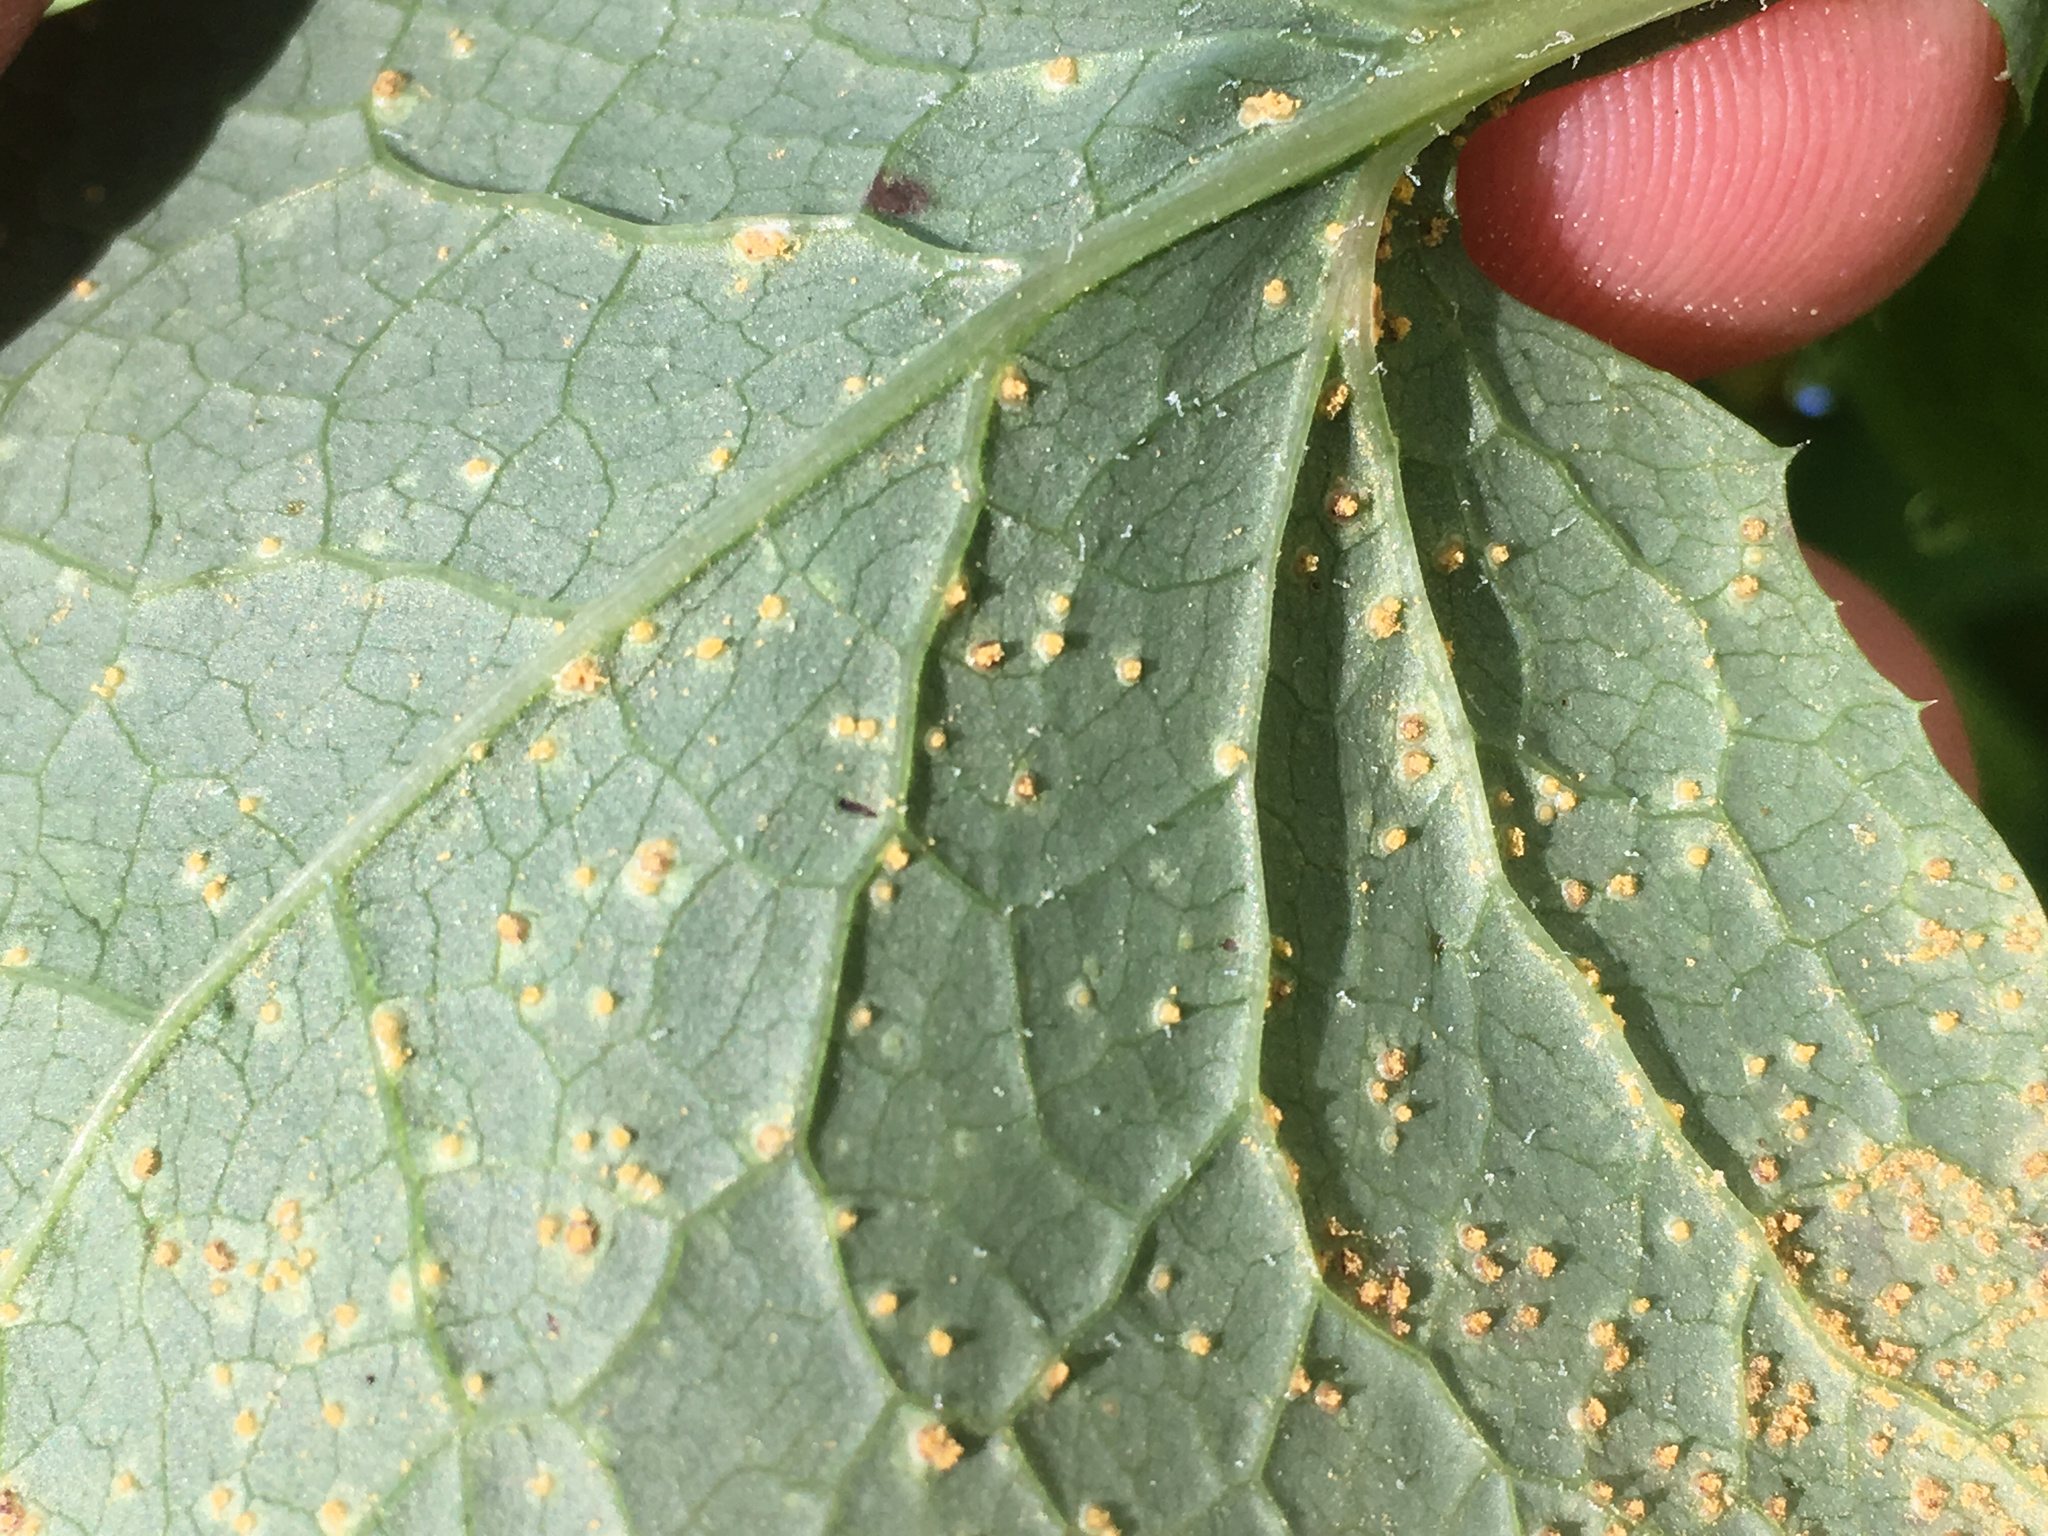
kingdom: Fungi
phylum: Basidiomycota
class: Pucciniomycetes
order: Pucciniales
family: Pucciniaceae
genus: Peristemma
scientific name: Peristemma pseudosphaeria
